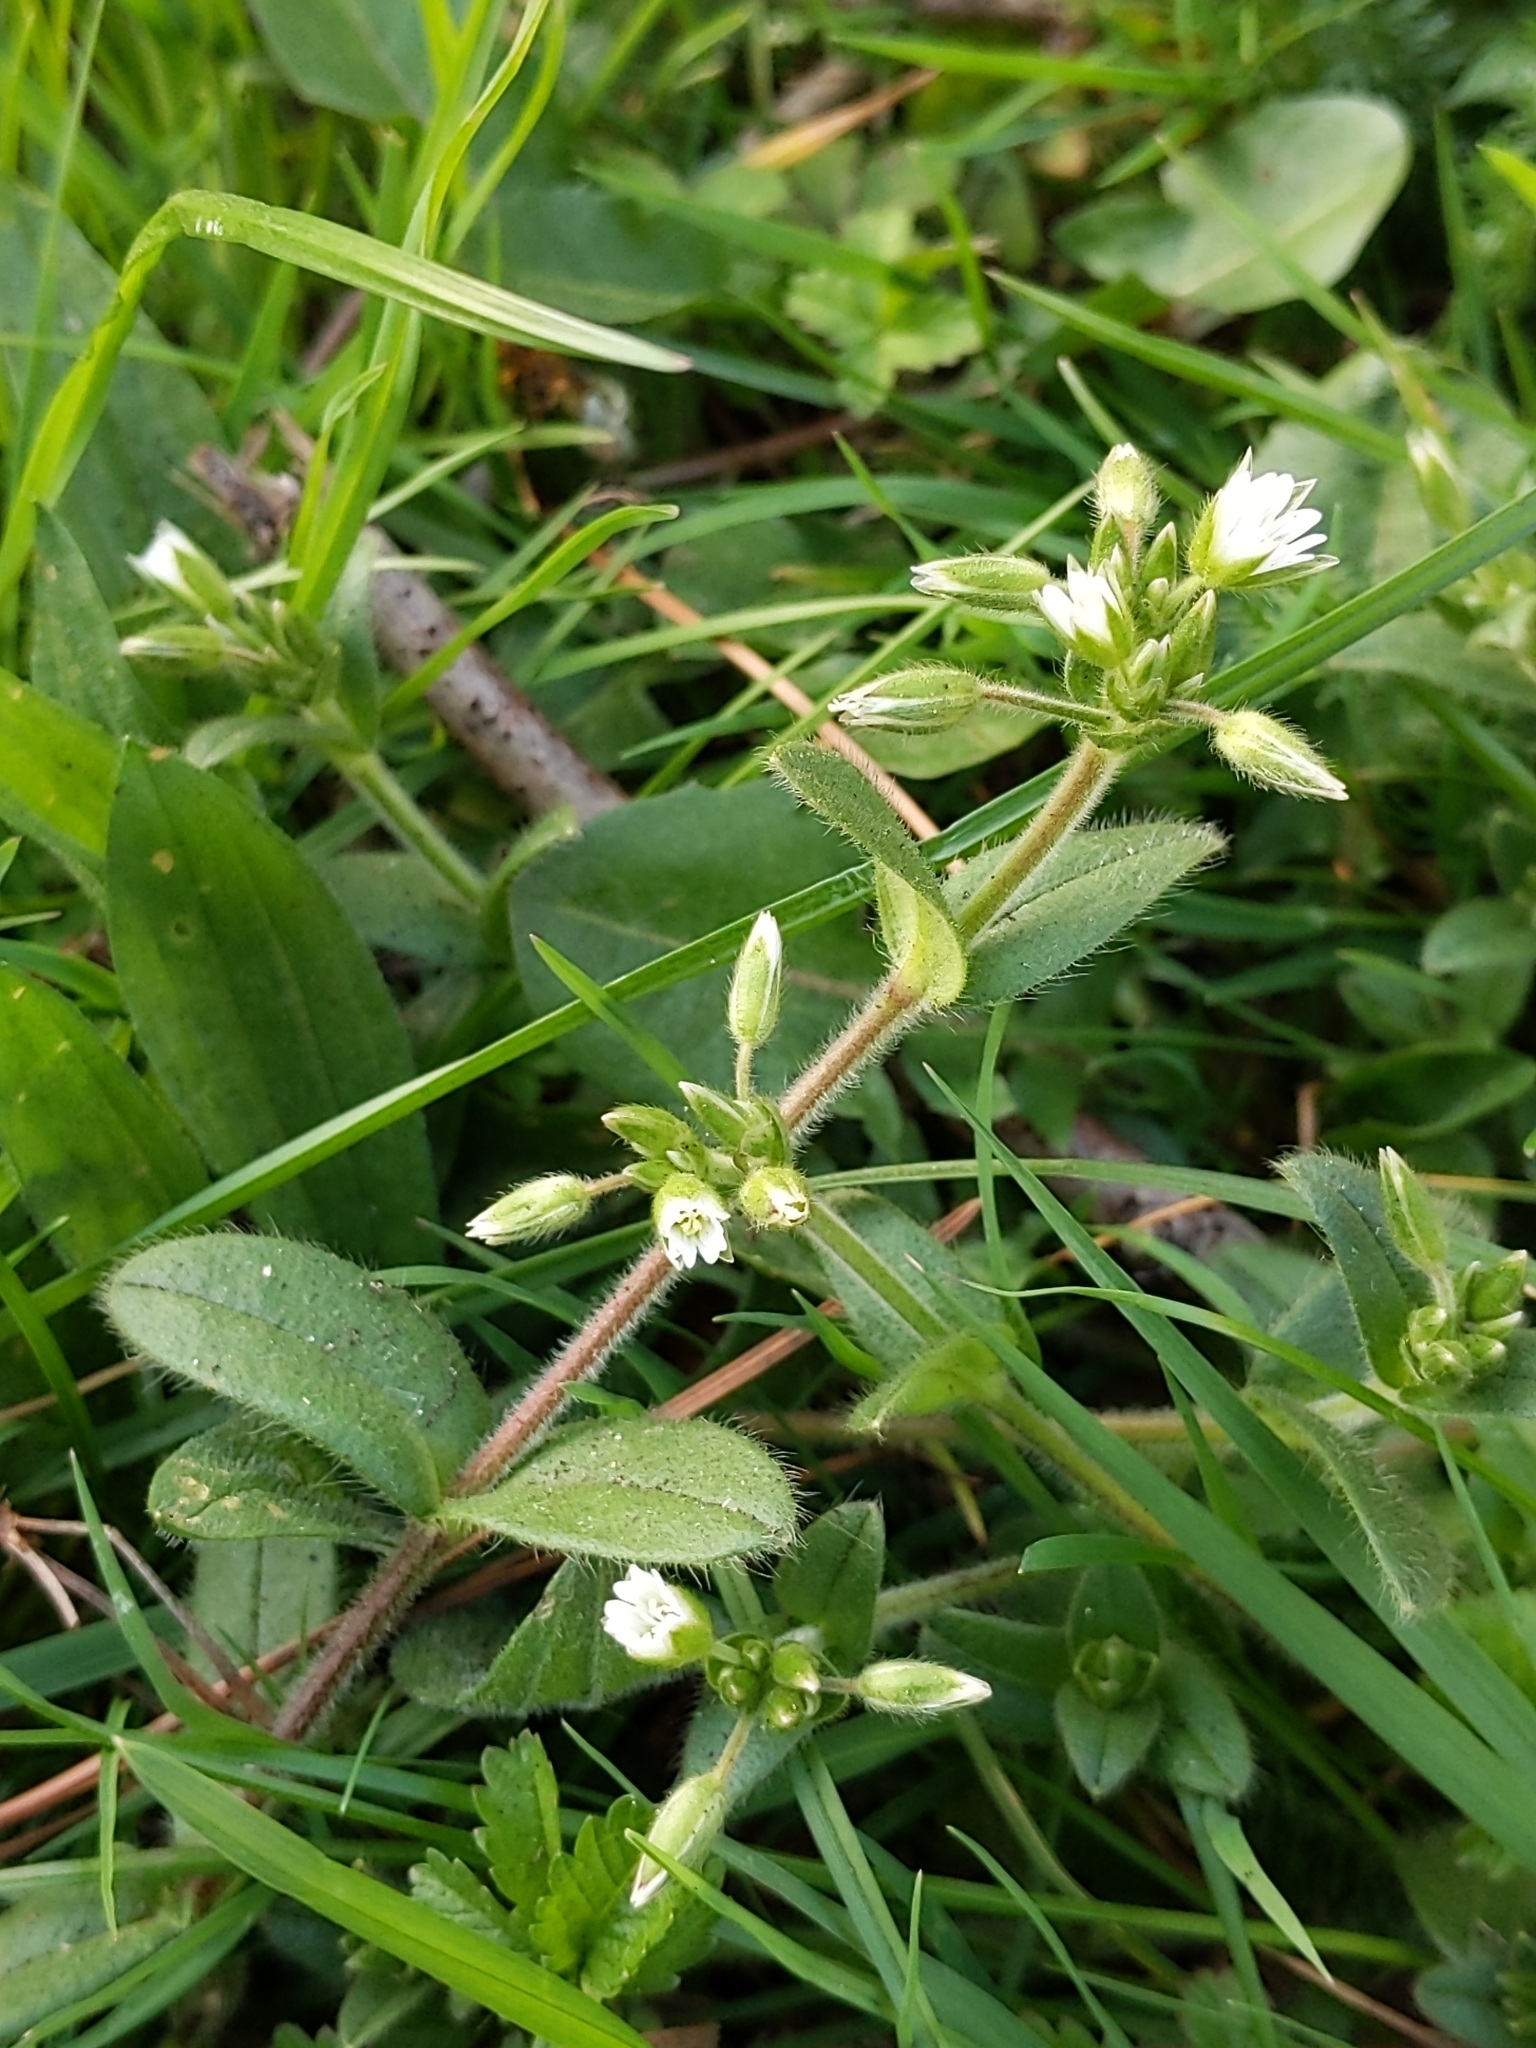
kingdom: Plantae
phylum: Tracheophyta
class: Magnoliopsida
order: Caryophyllales
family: Caryophyllaceae
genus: Cerastium
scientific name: Cerastium fontanum
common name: Common mouse-ear
